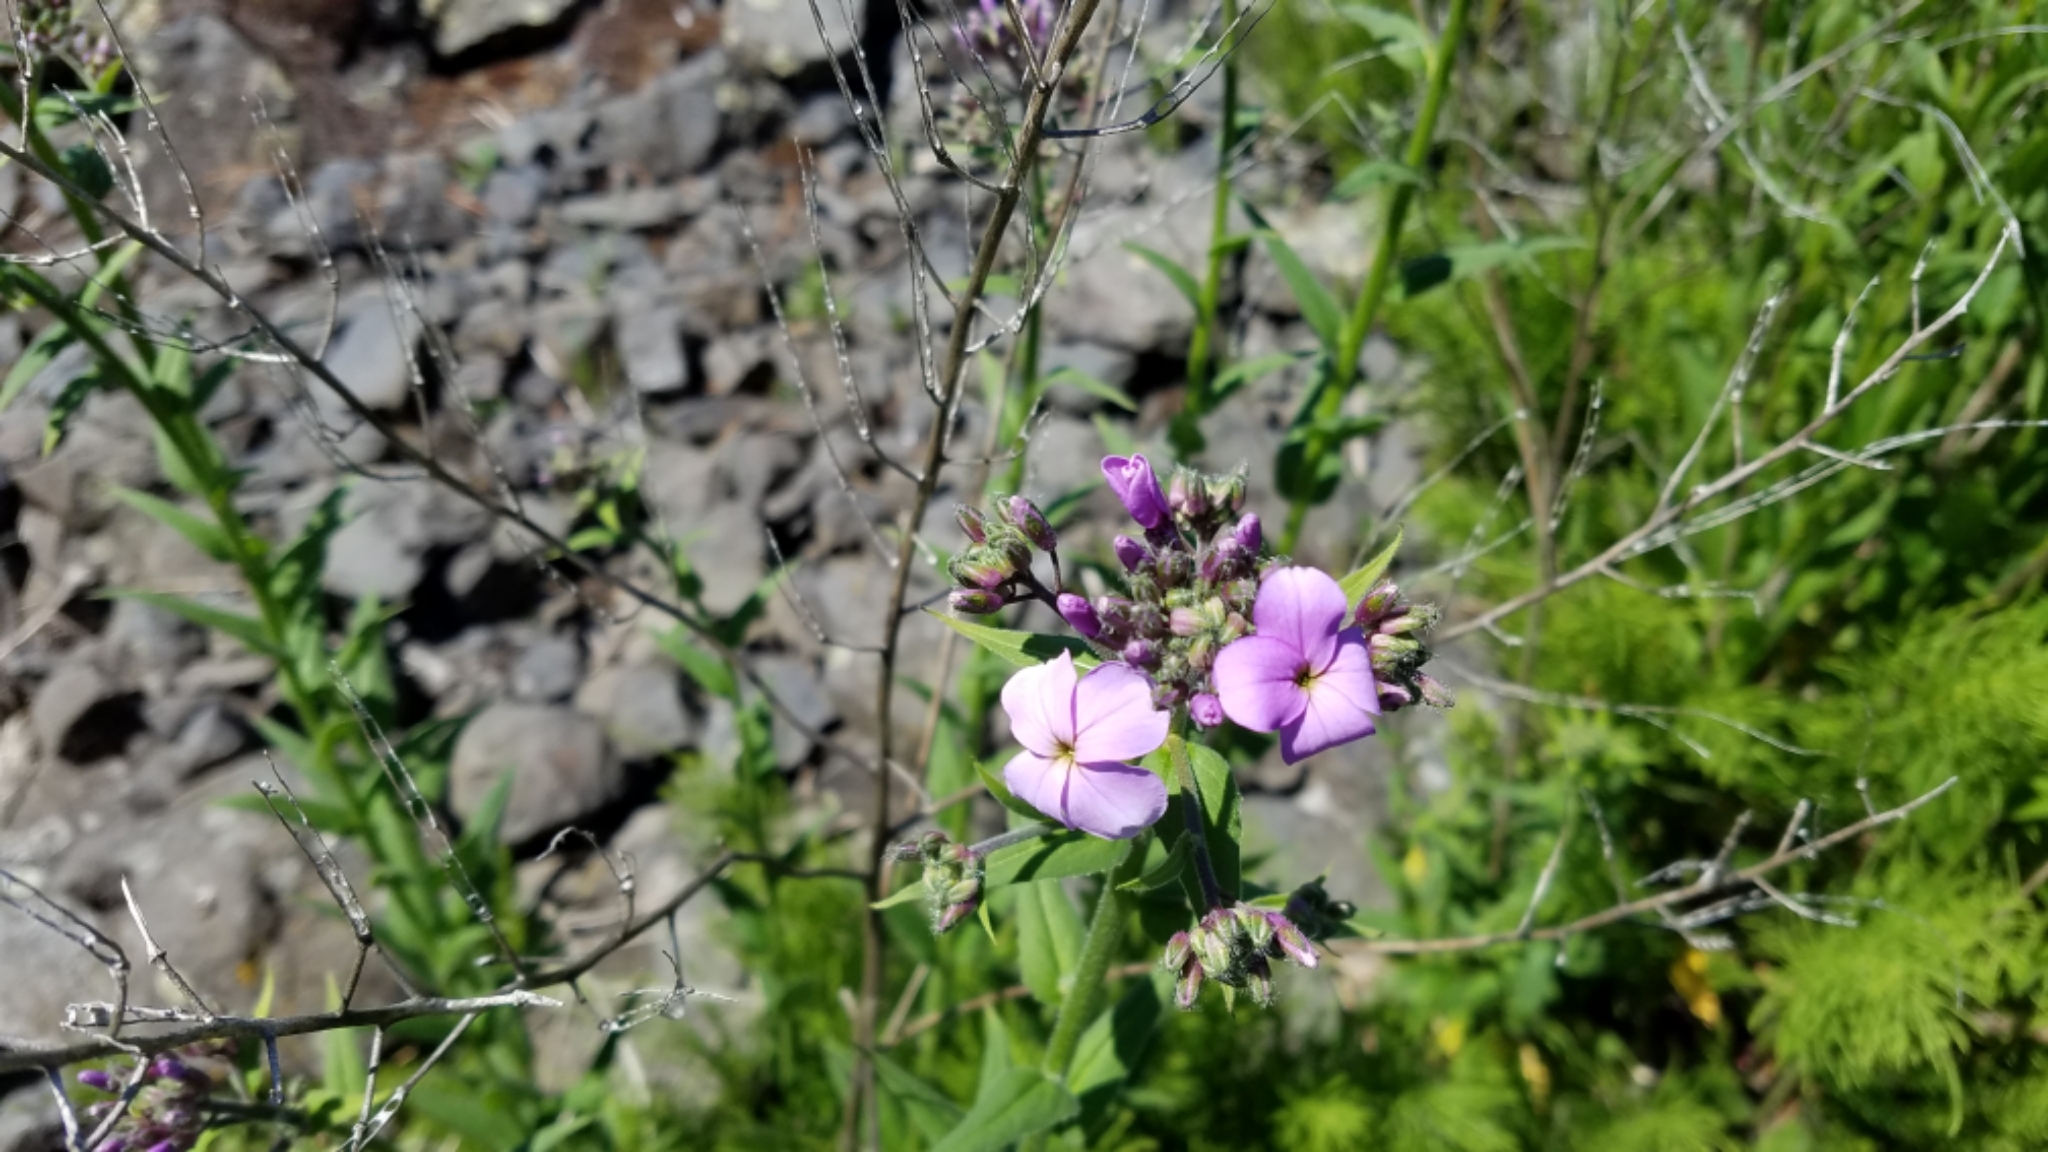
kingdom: Plantae
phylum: Tracheophyta
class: Magnoliopsida
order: Brassicales
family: Brassicaceae
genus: Hesperis
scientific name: Hesperis matronalis
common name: Dame's-violet
